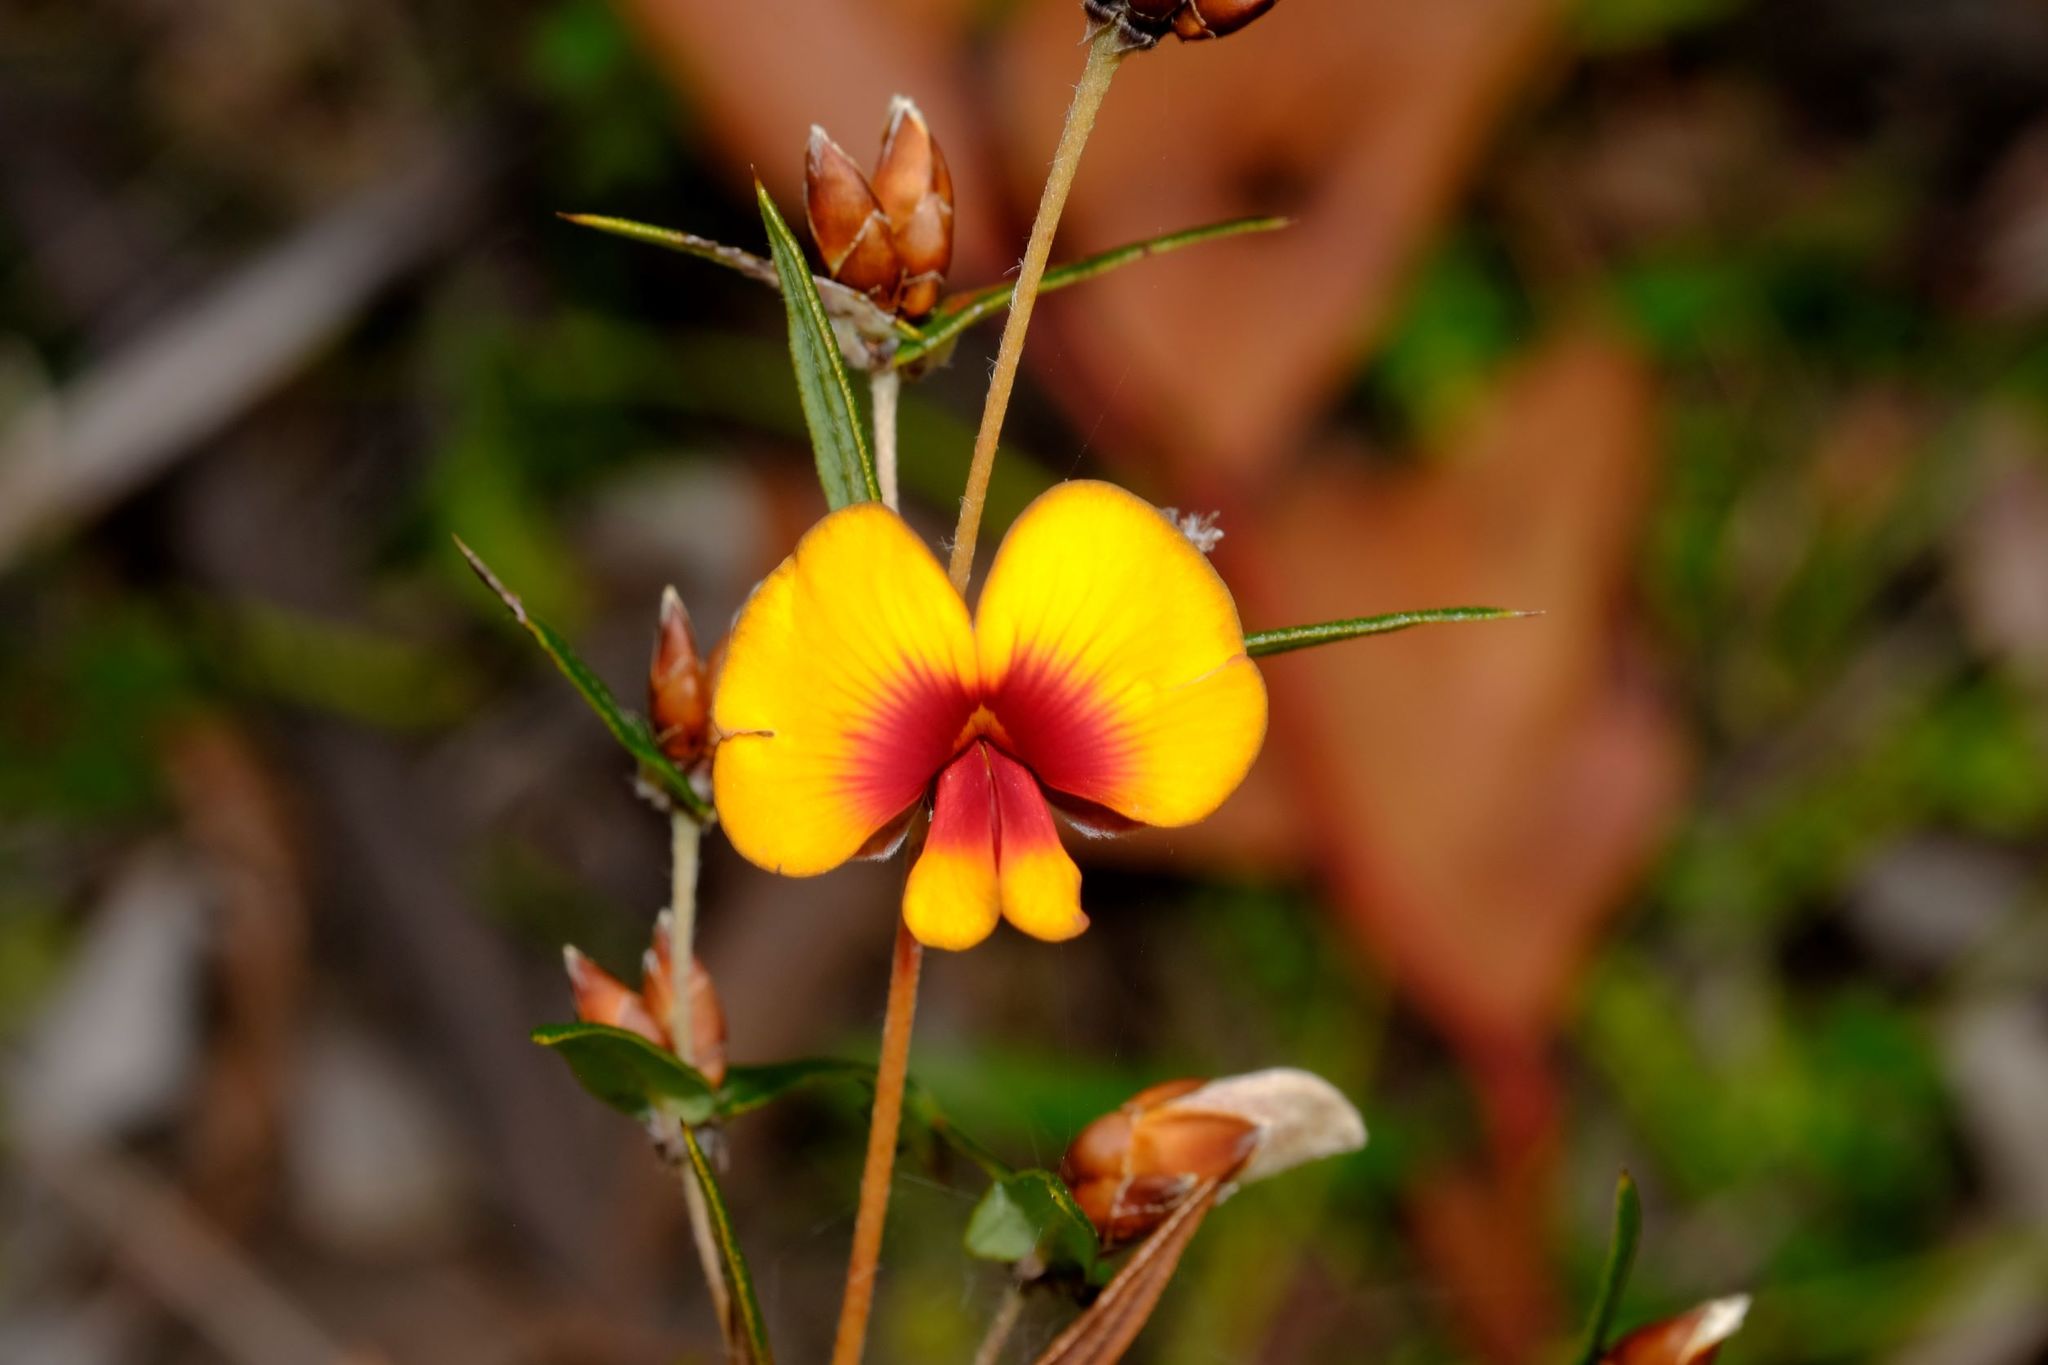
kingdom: Plantae
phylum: Tracheophyta
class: Magnoliopsida
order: Fabales
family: Fabaceae
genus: Bossiaea
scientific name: Bossiaea cinerea
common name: Showy bossiaea
